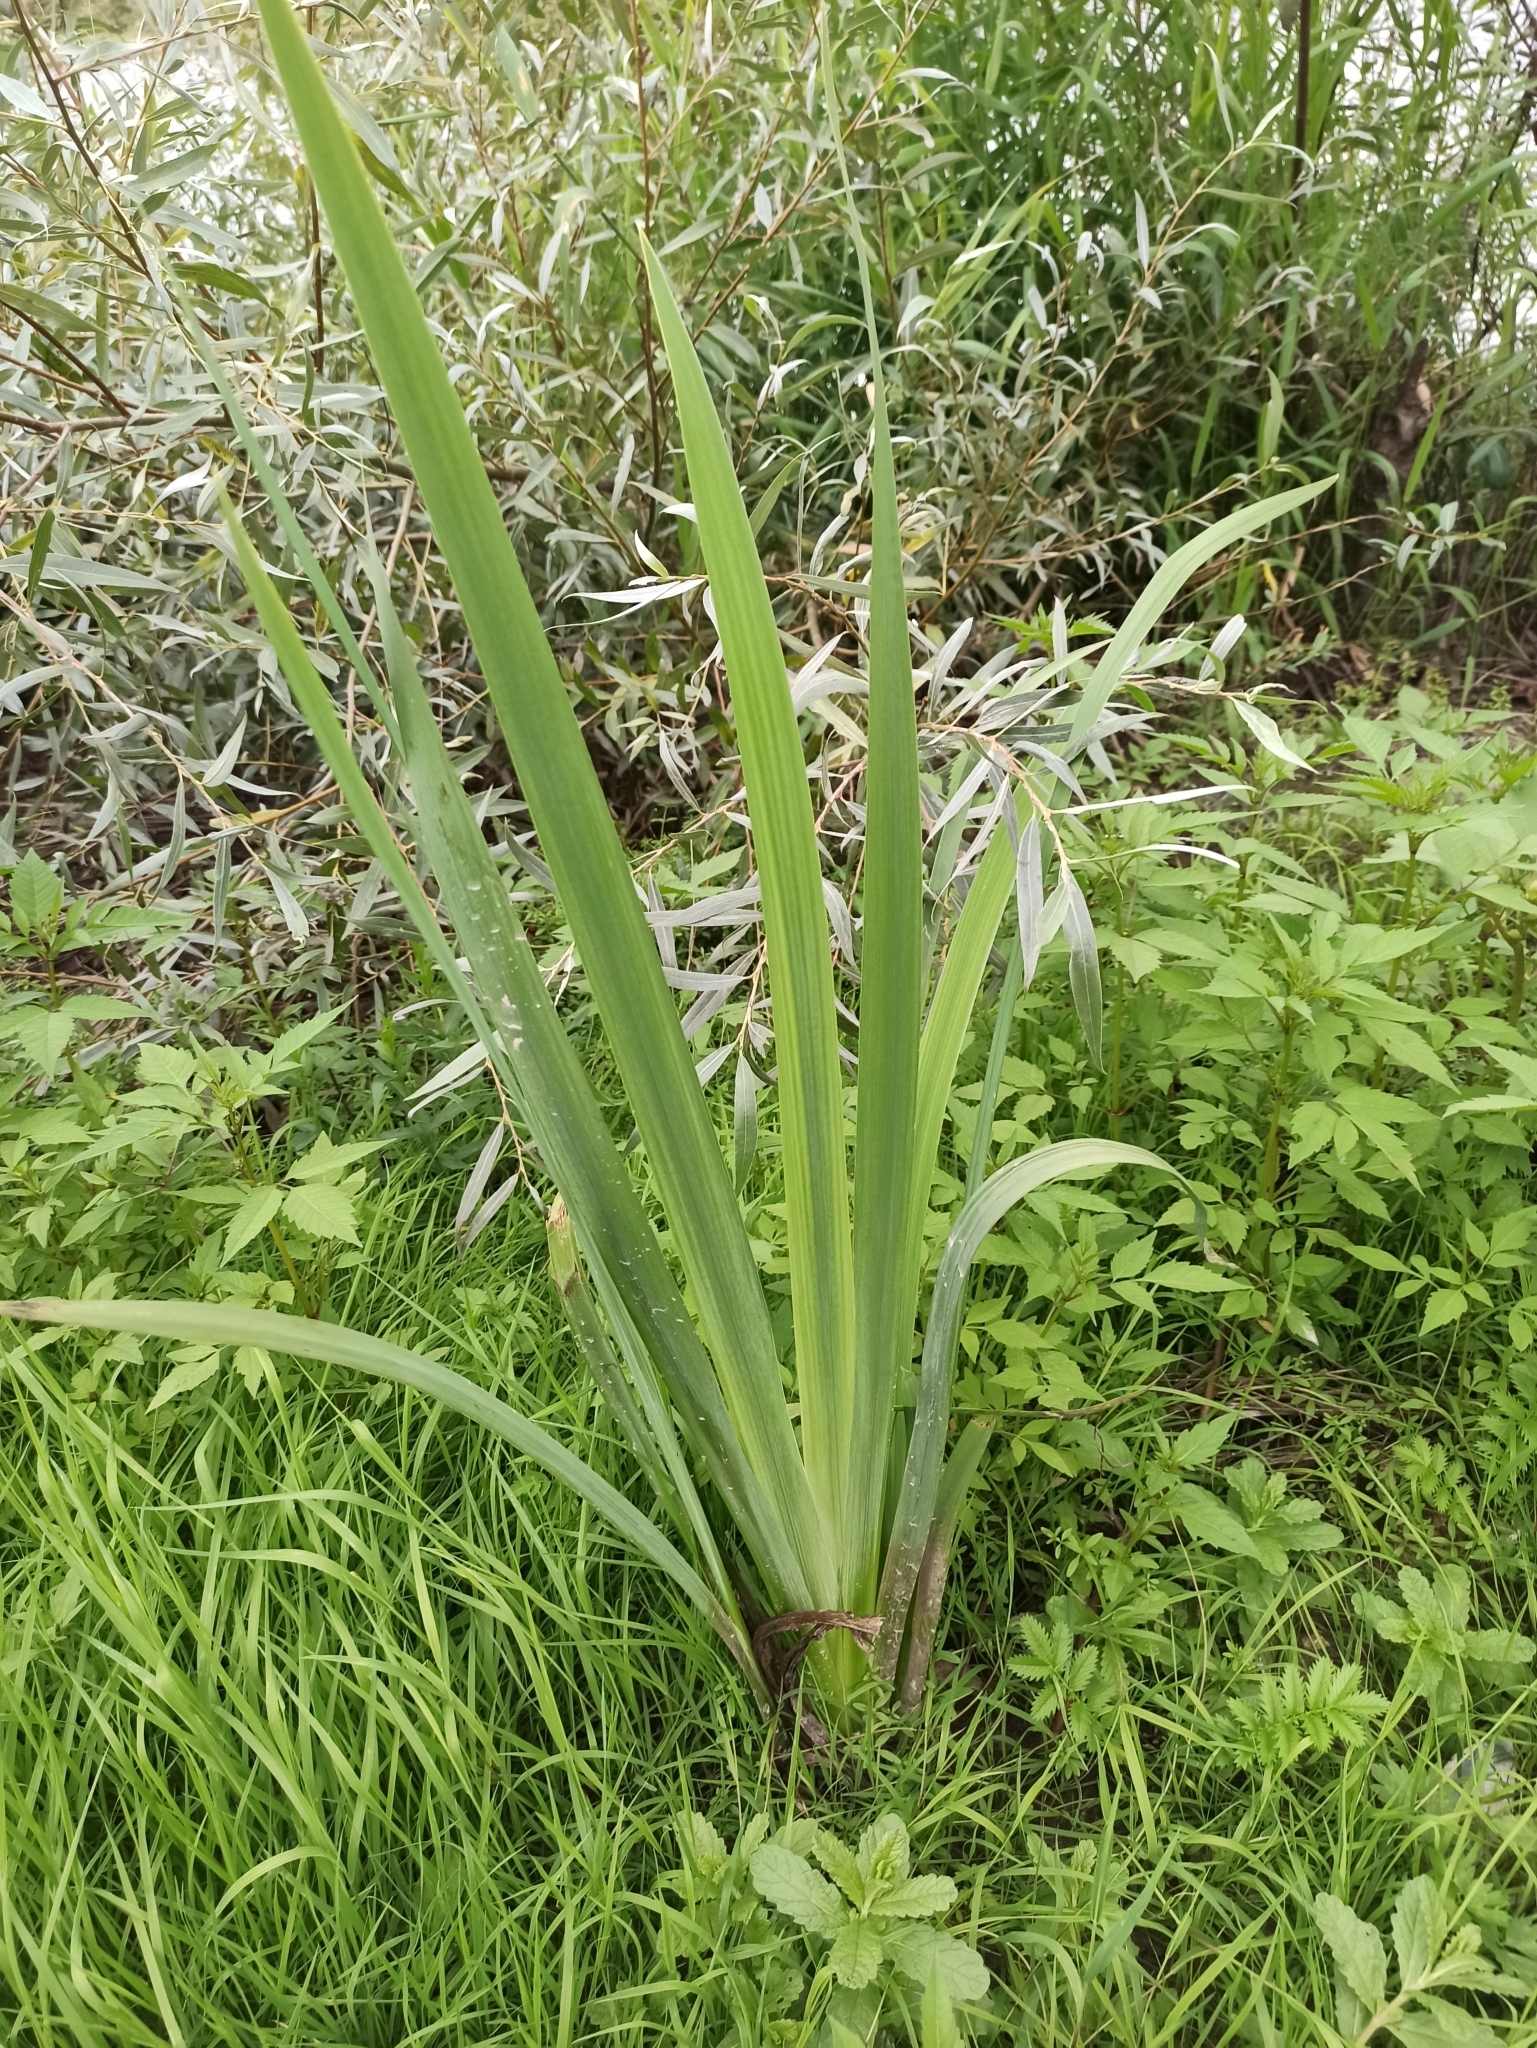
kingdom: Plantae
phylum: Tracheophyta
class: Liliopsida
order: Asparagales
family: Iridaceae
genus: Iris
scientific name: Iris pseudacorus
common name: Yellow flag
